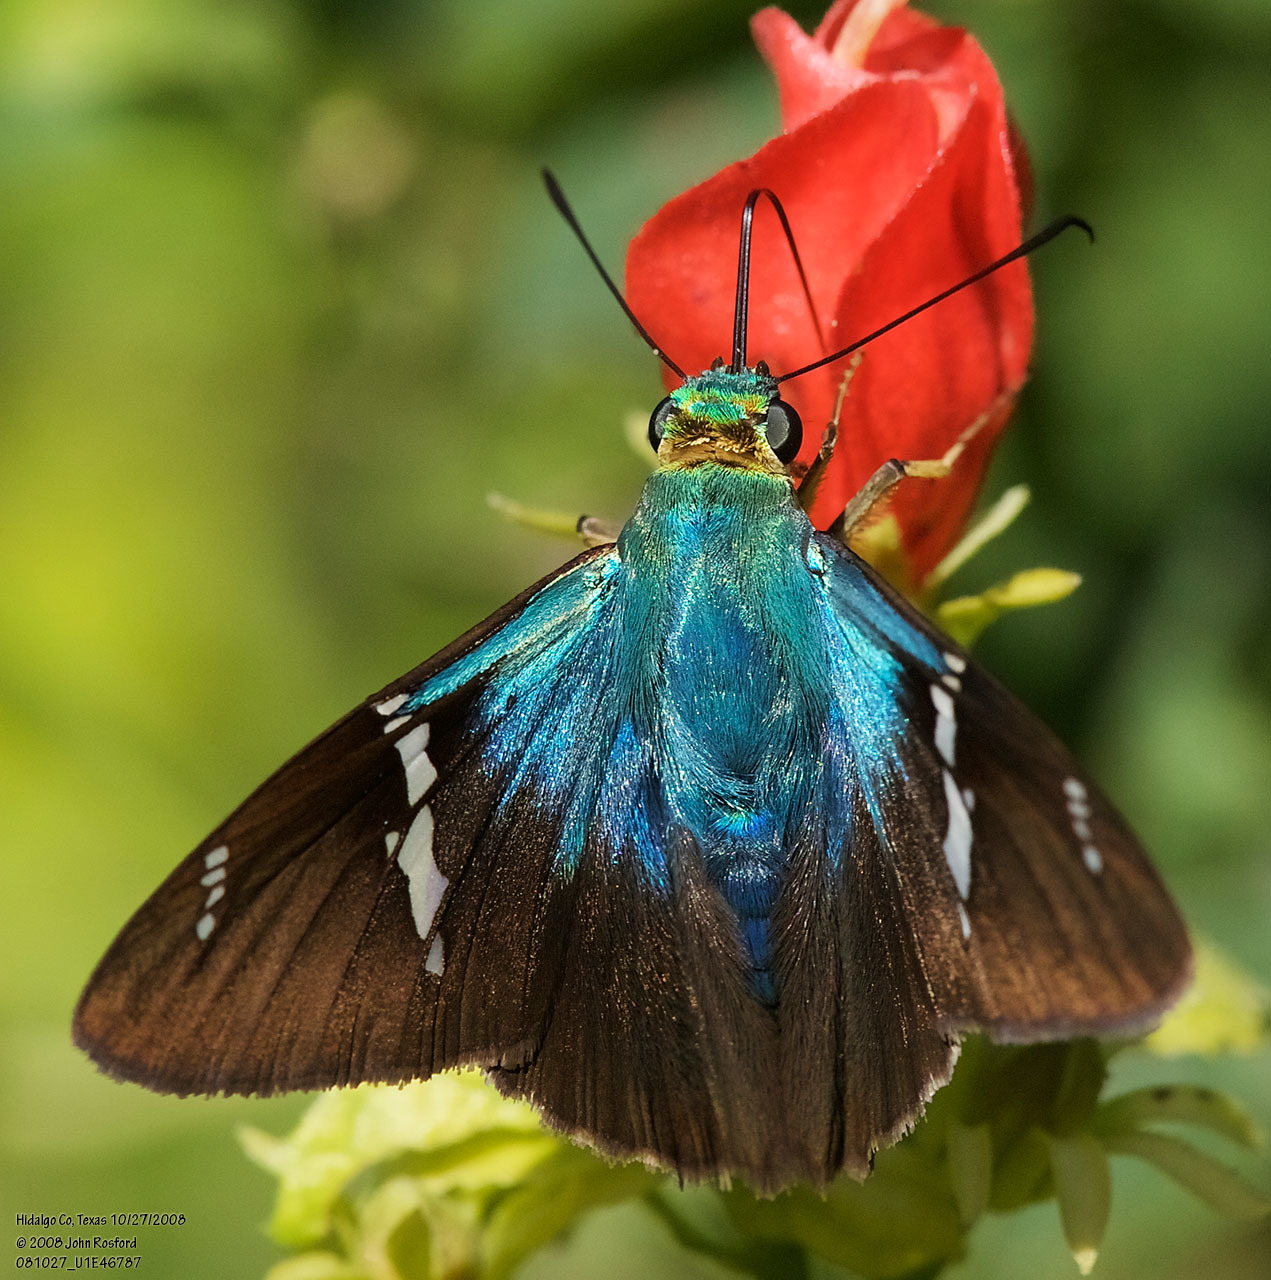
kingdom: Animalia
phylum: Arthropoda
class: Insecta
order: Lepidoptera
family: Hesperiidae
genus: Astraptes
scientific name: Astraptes fulgerator
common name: Two-barred flasher
